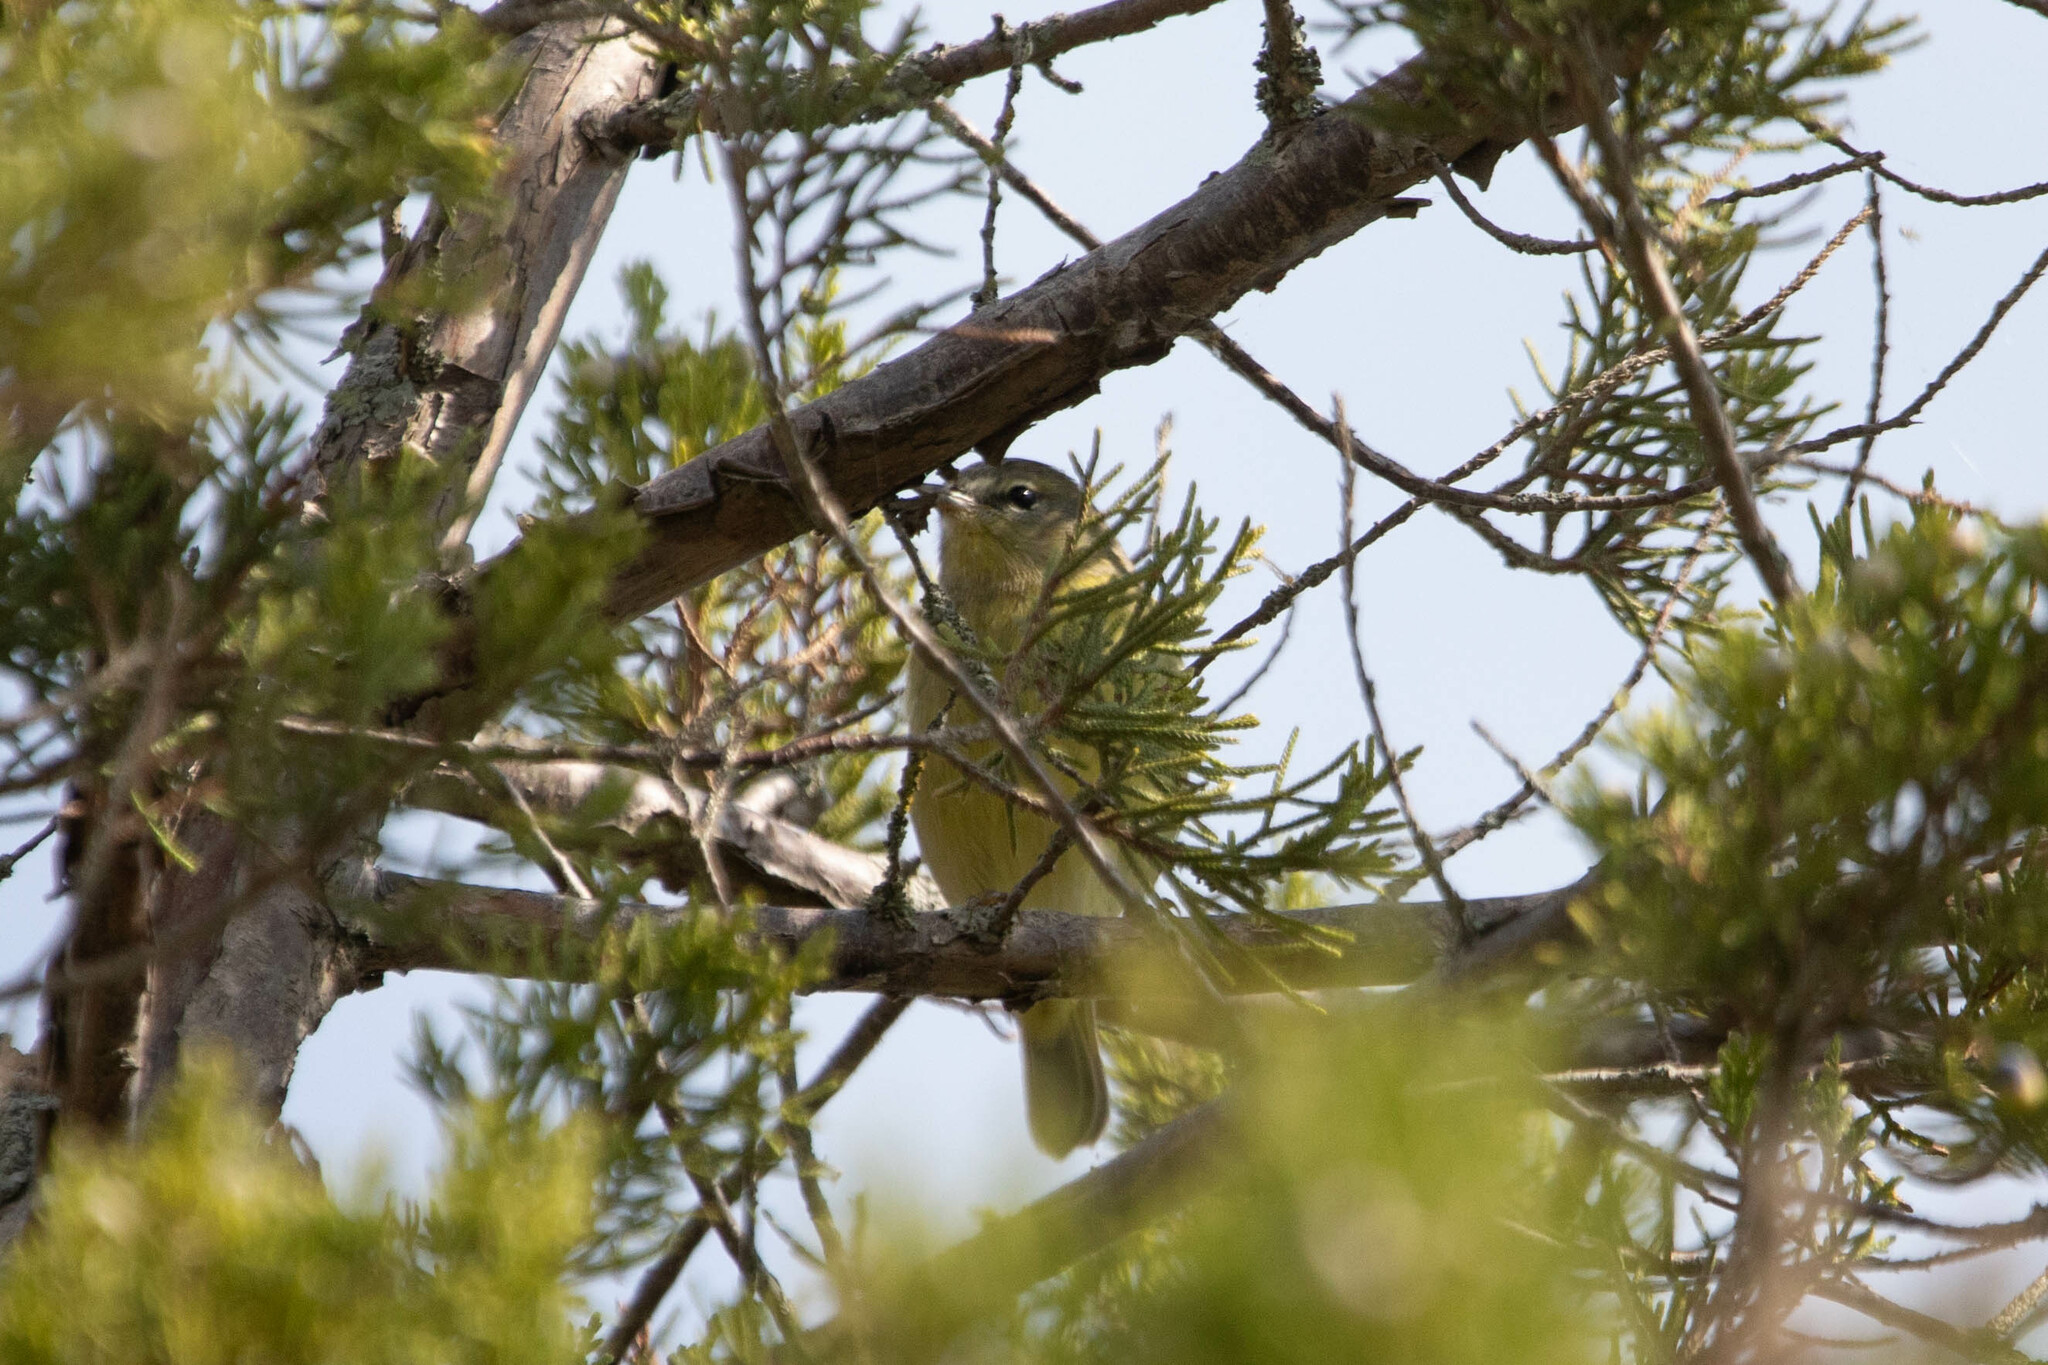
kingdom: Animalia
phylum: Chordata
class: Aves
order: Passeriformes
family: Parulidae
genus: Leiothlypis
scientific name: Leiothlypis celata
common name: Orange-crowned warbler
